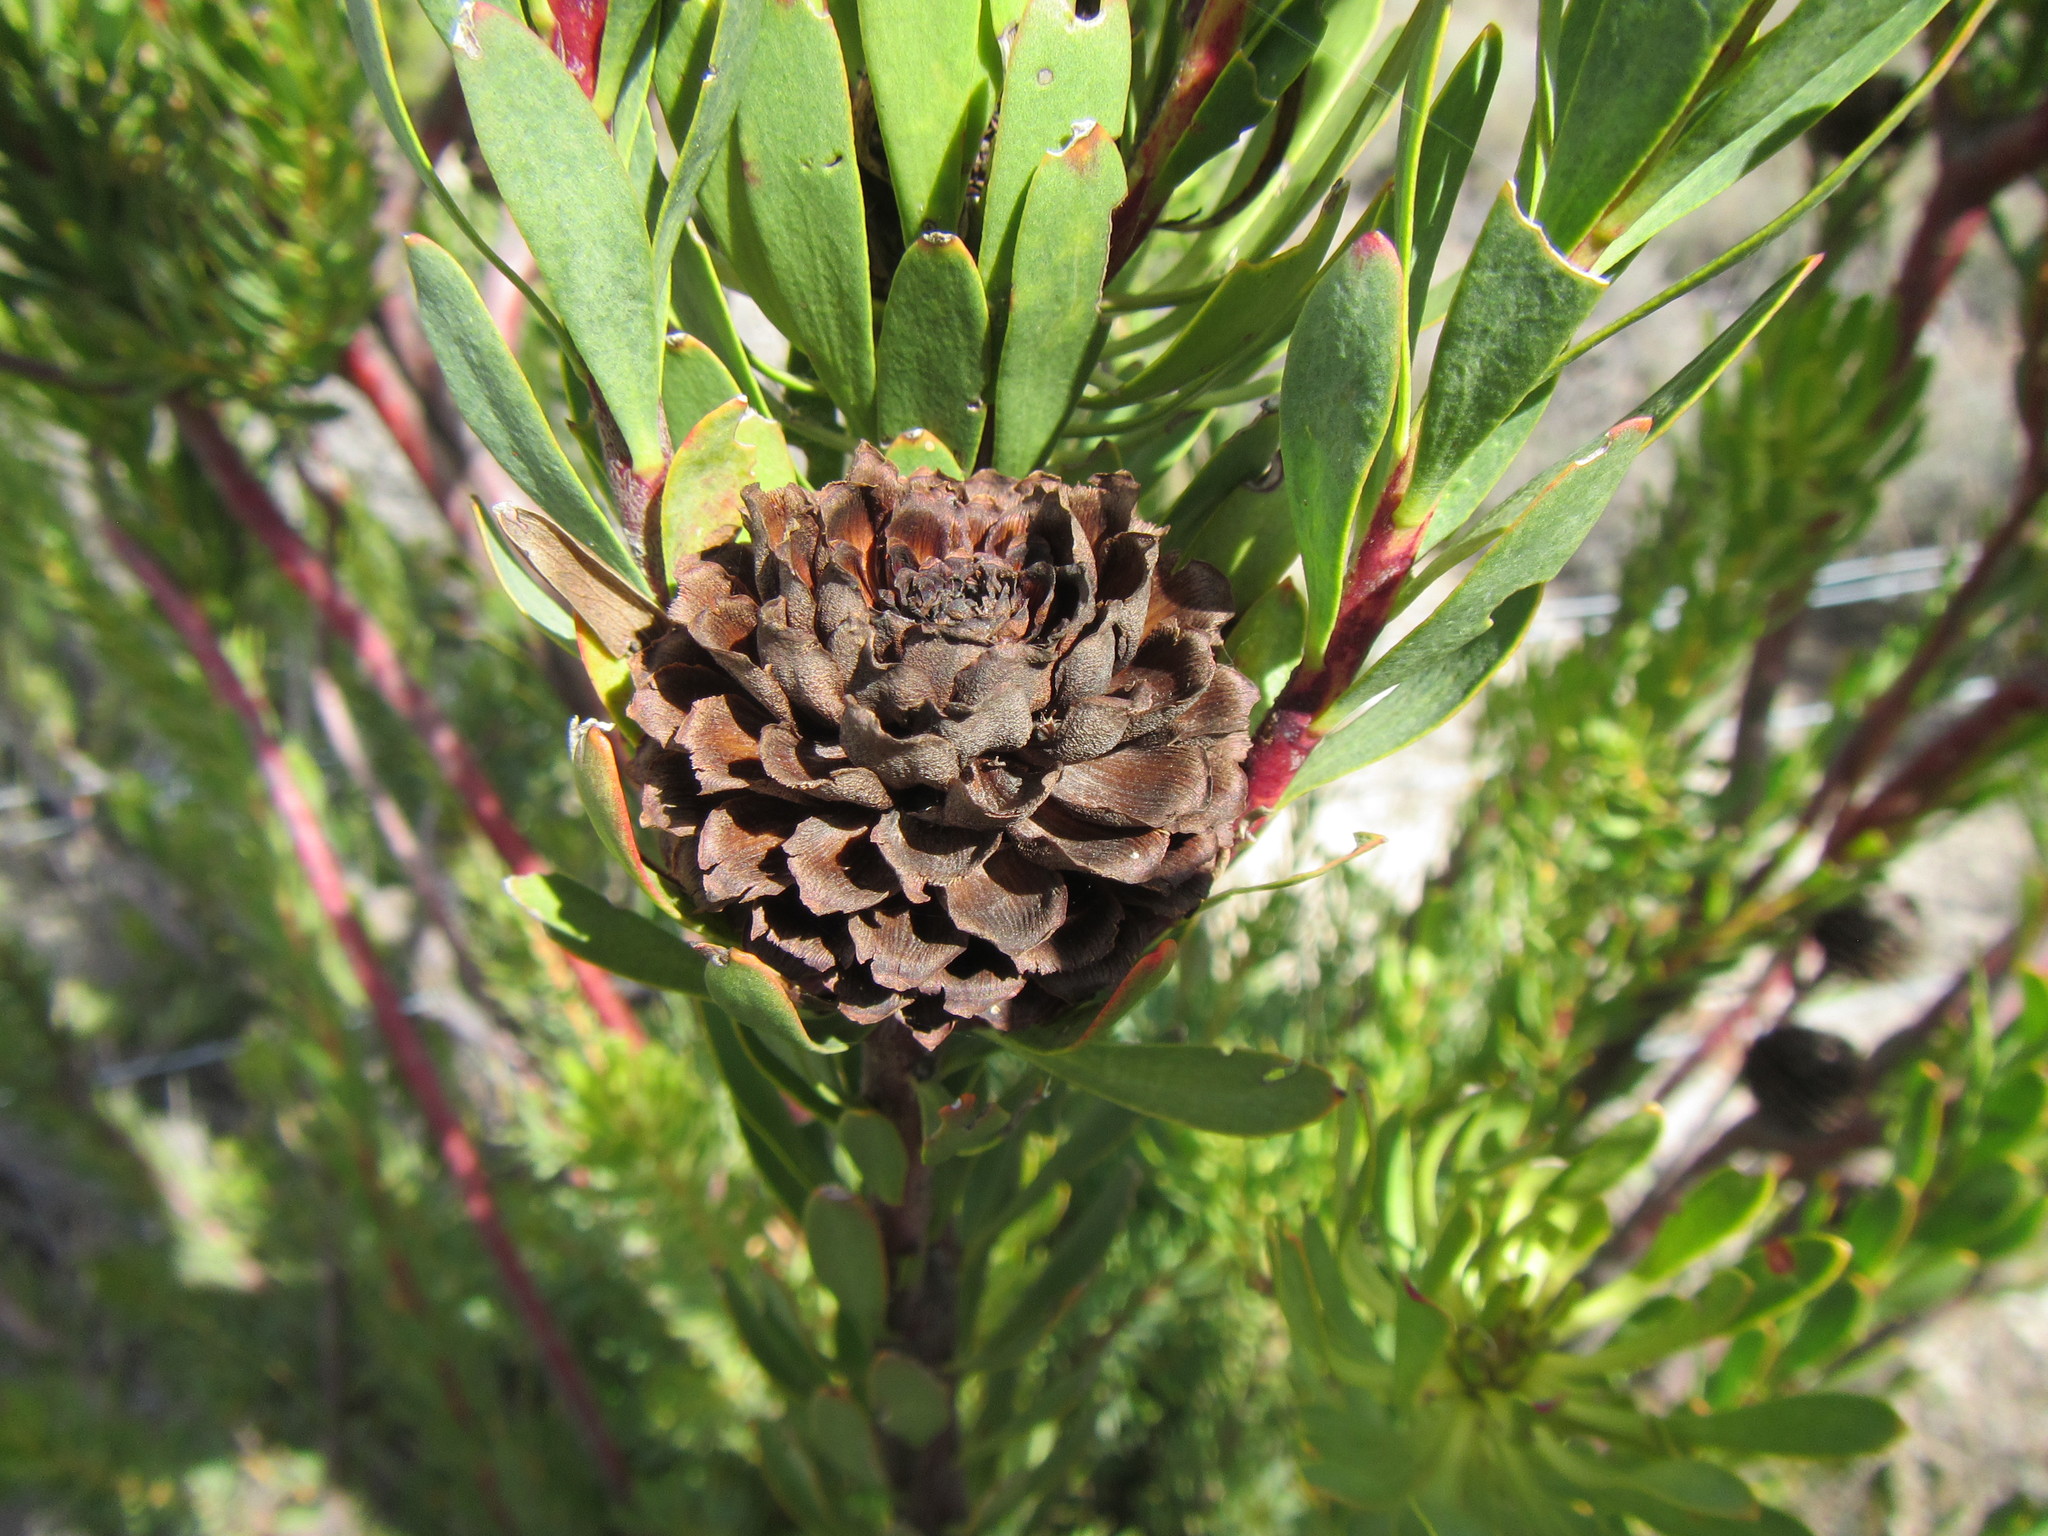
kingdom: Plantae
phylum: Tracheophyta
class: Magnoliopsida
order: Proteales
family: Proteaceae
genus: Leucadendron
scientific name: Leucadendron chamelaea
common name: Witsenberg conebush
